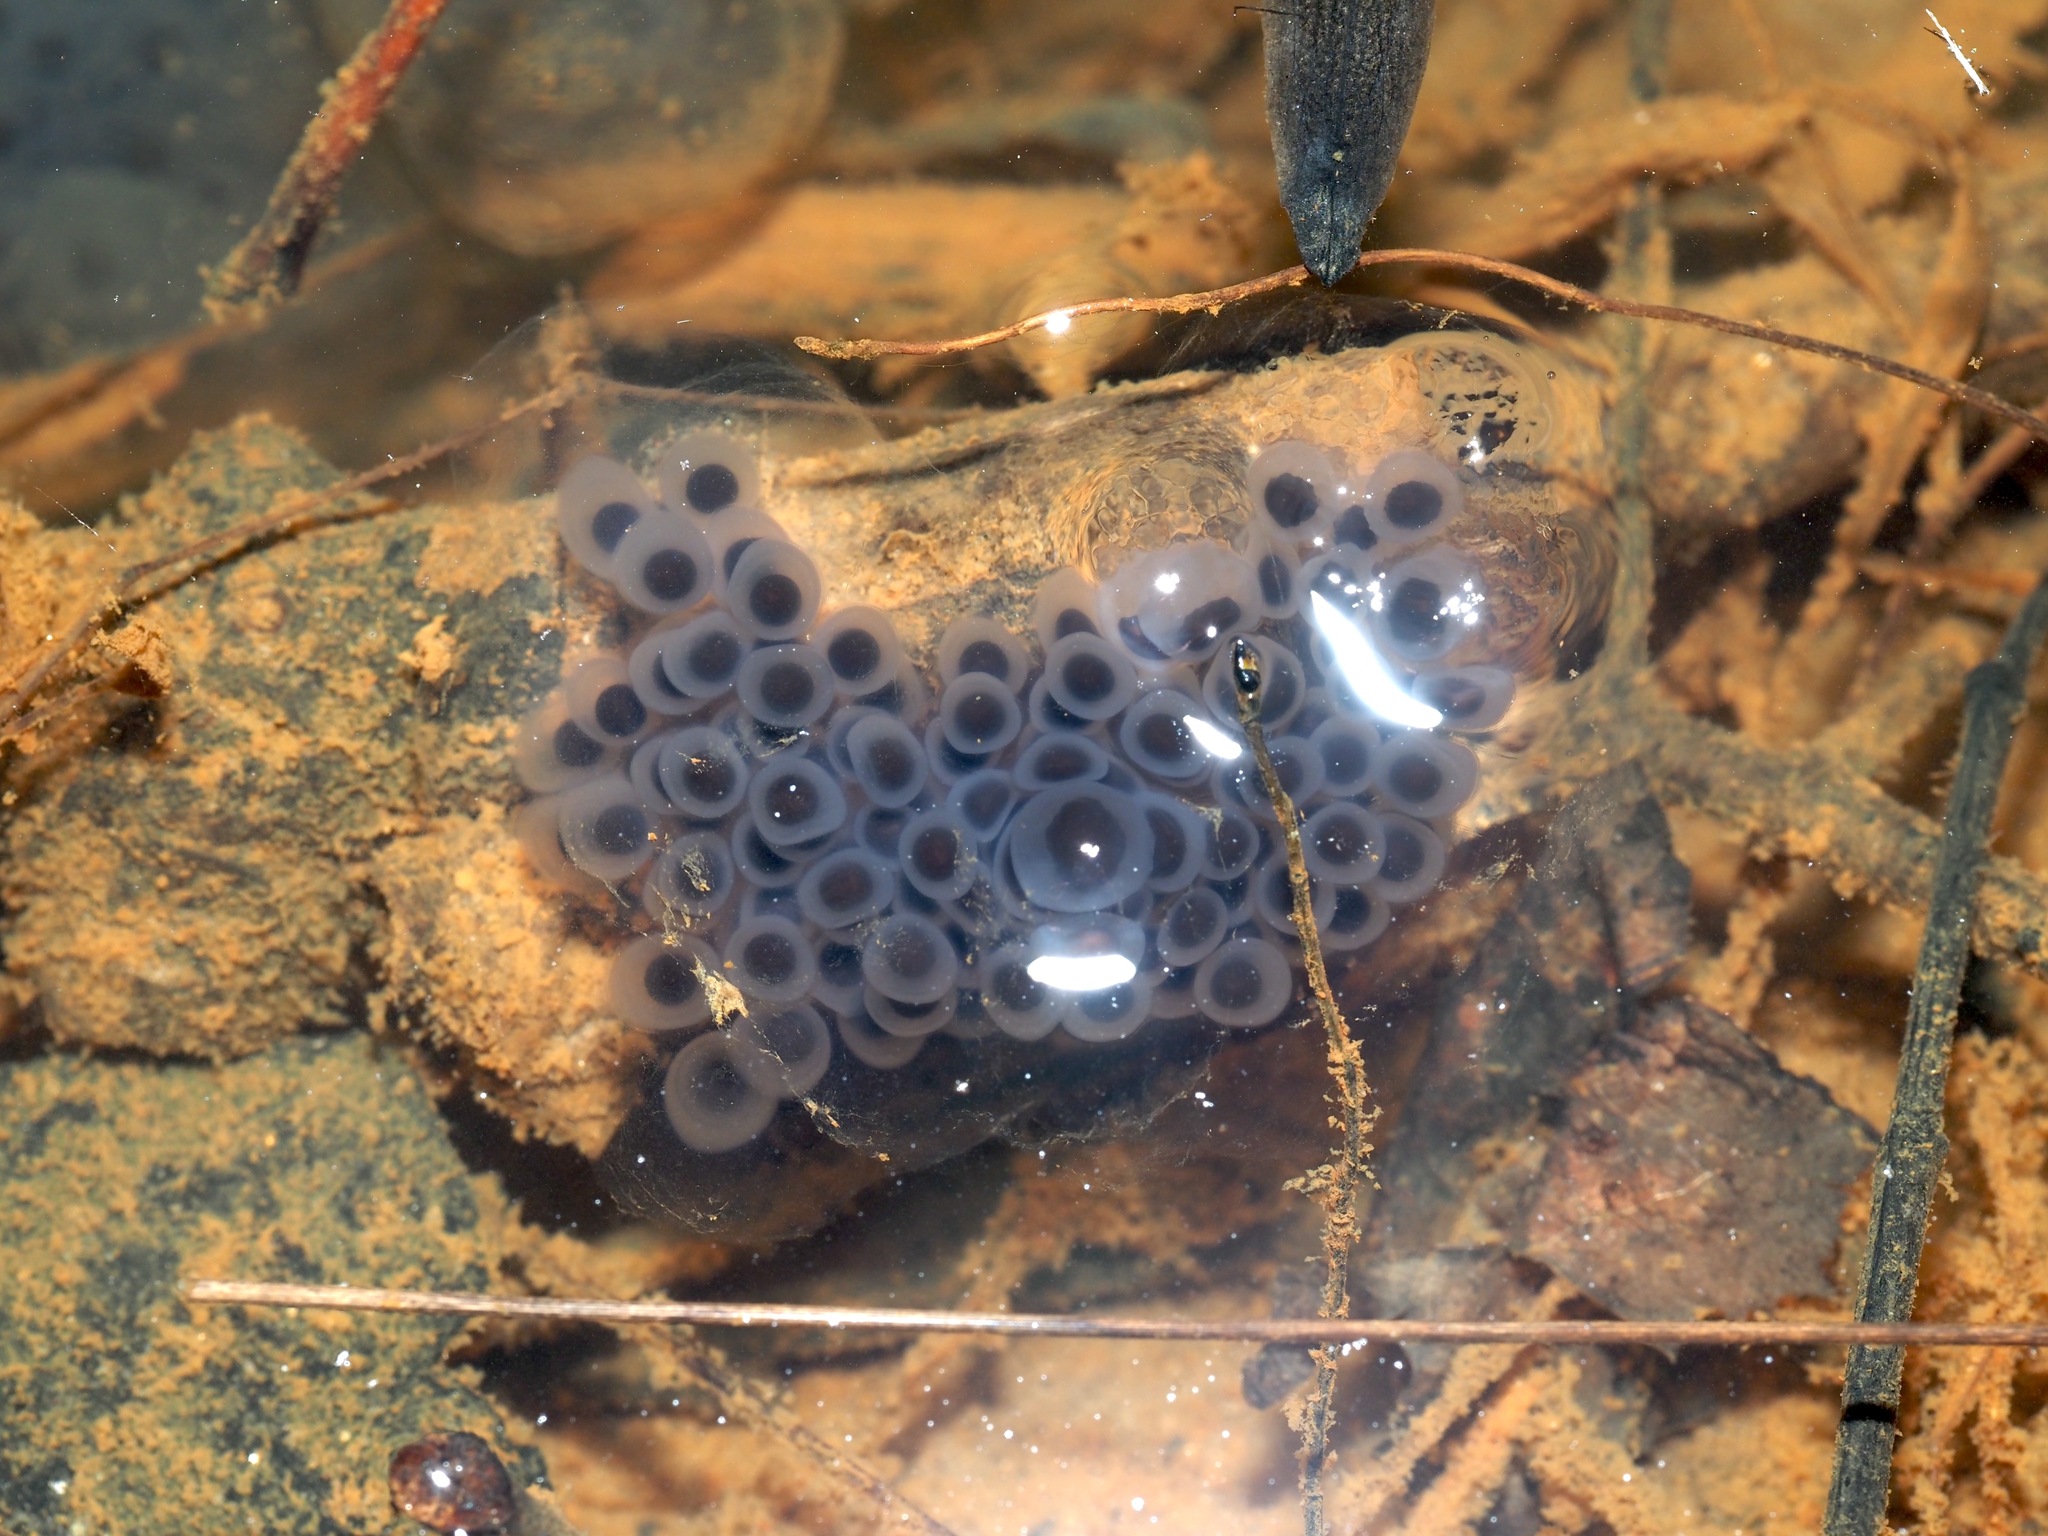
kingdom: Animalia
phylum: Chordata
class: Amphibia
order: Caudata
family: Ambystomatidae
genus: Ambystoma
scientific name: Ambystoma maculatum
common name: Spotted salamander
